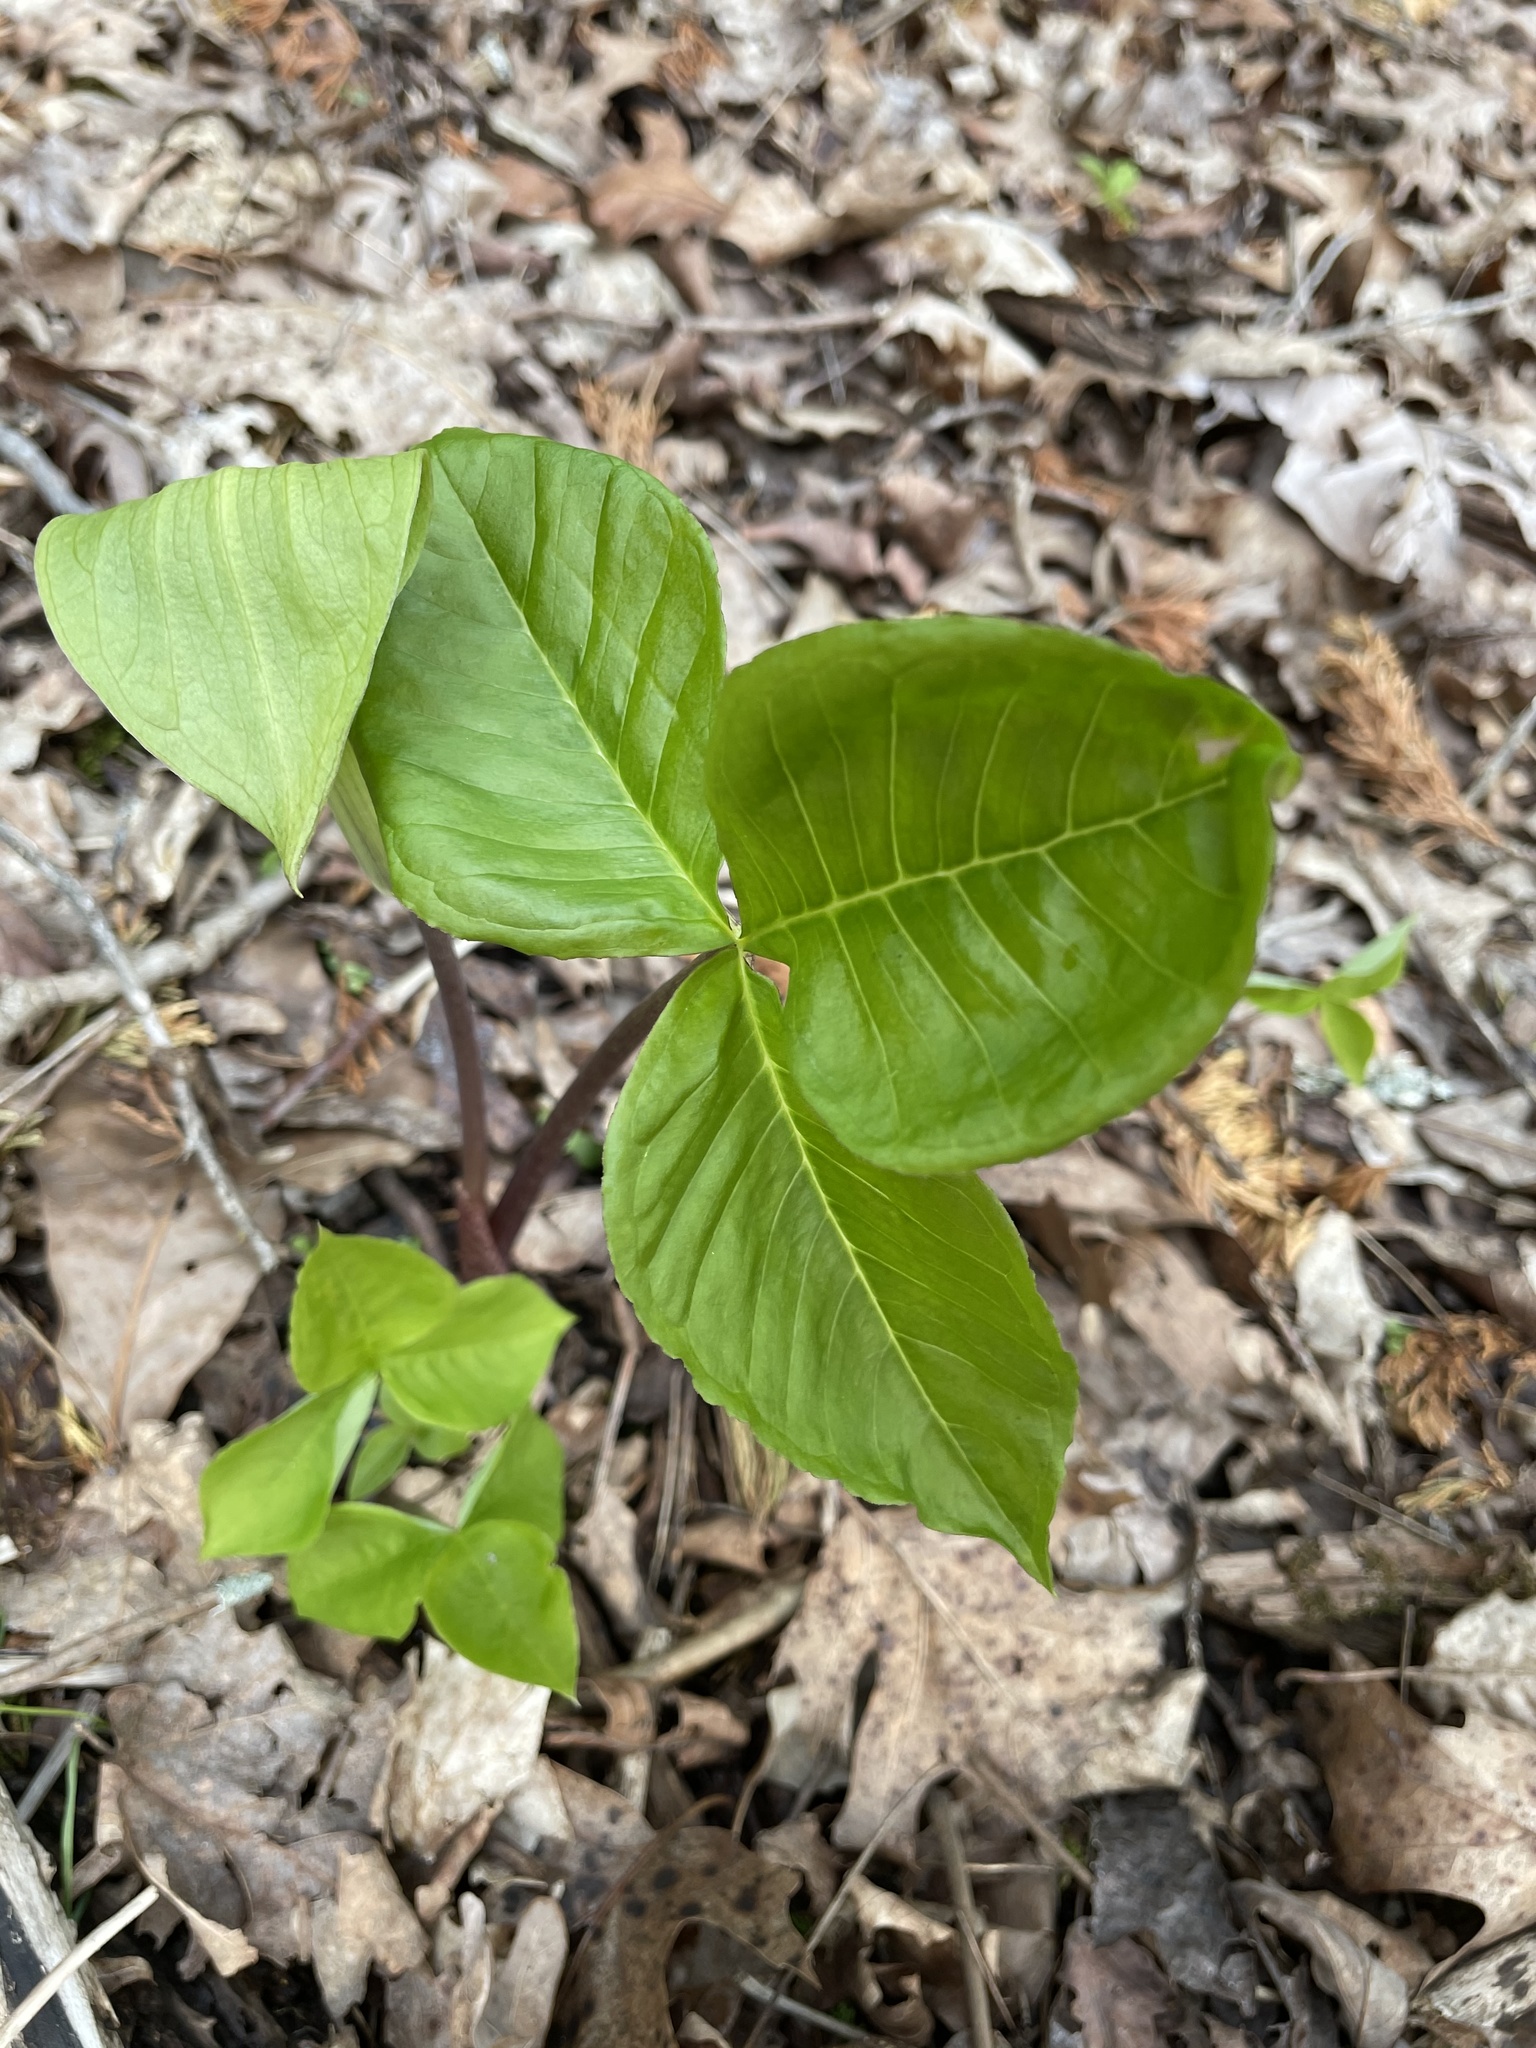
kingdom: Plantae
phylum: Tracheophyta
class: Liliopsida
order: Alismatales
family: Araceae
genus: Arisaema
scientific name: Arisaema triphyllum
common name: Jack-in-the-pulpit
